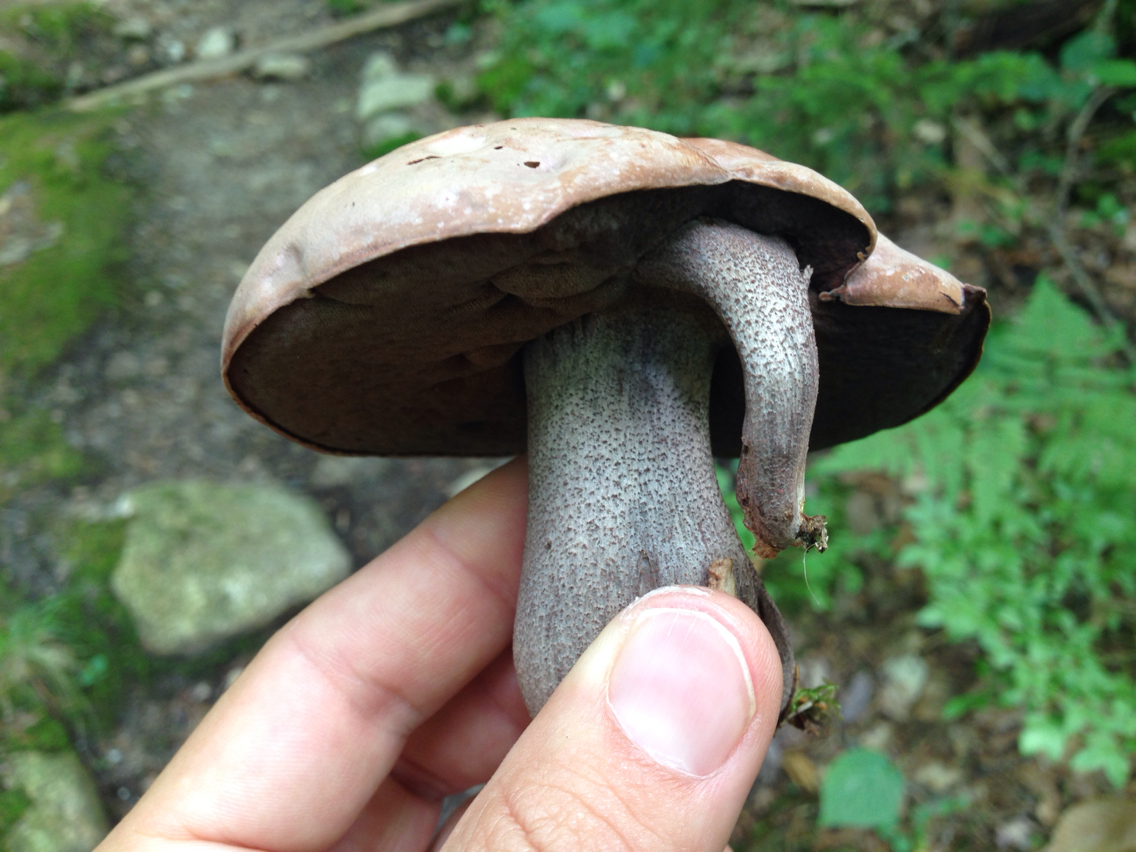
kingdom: Fungi
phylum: Basidiomycota
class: Agaricomycetes
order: Boletales
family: Boletaceae
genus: Sutorius
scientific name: Sutorius eximius
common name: Lilac-brown bolete
